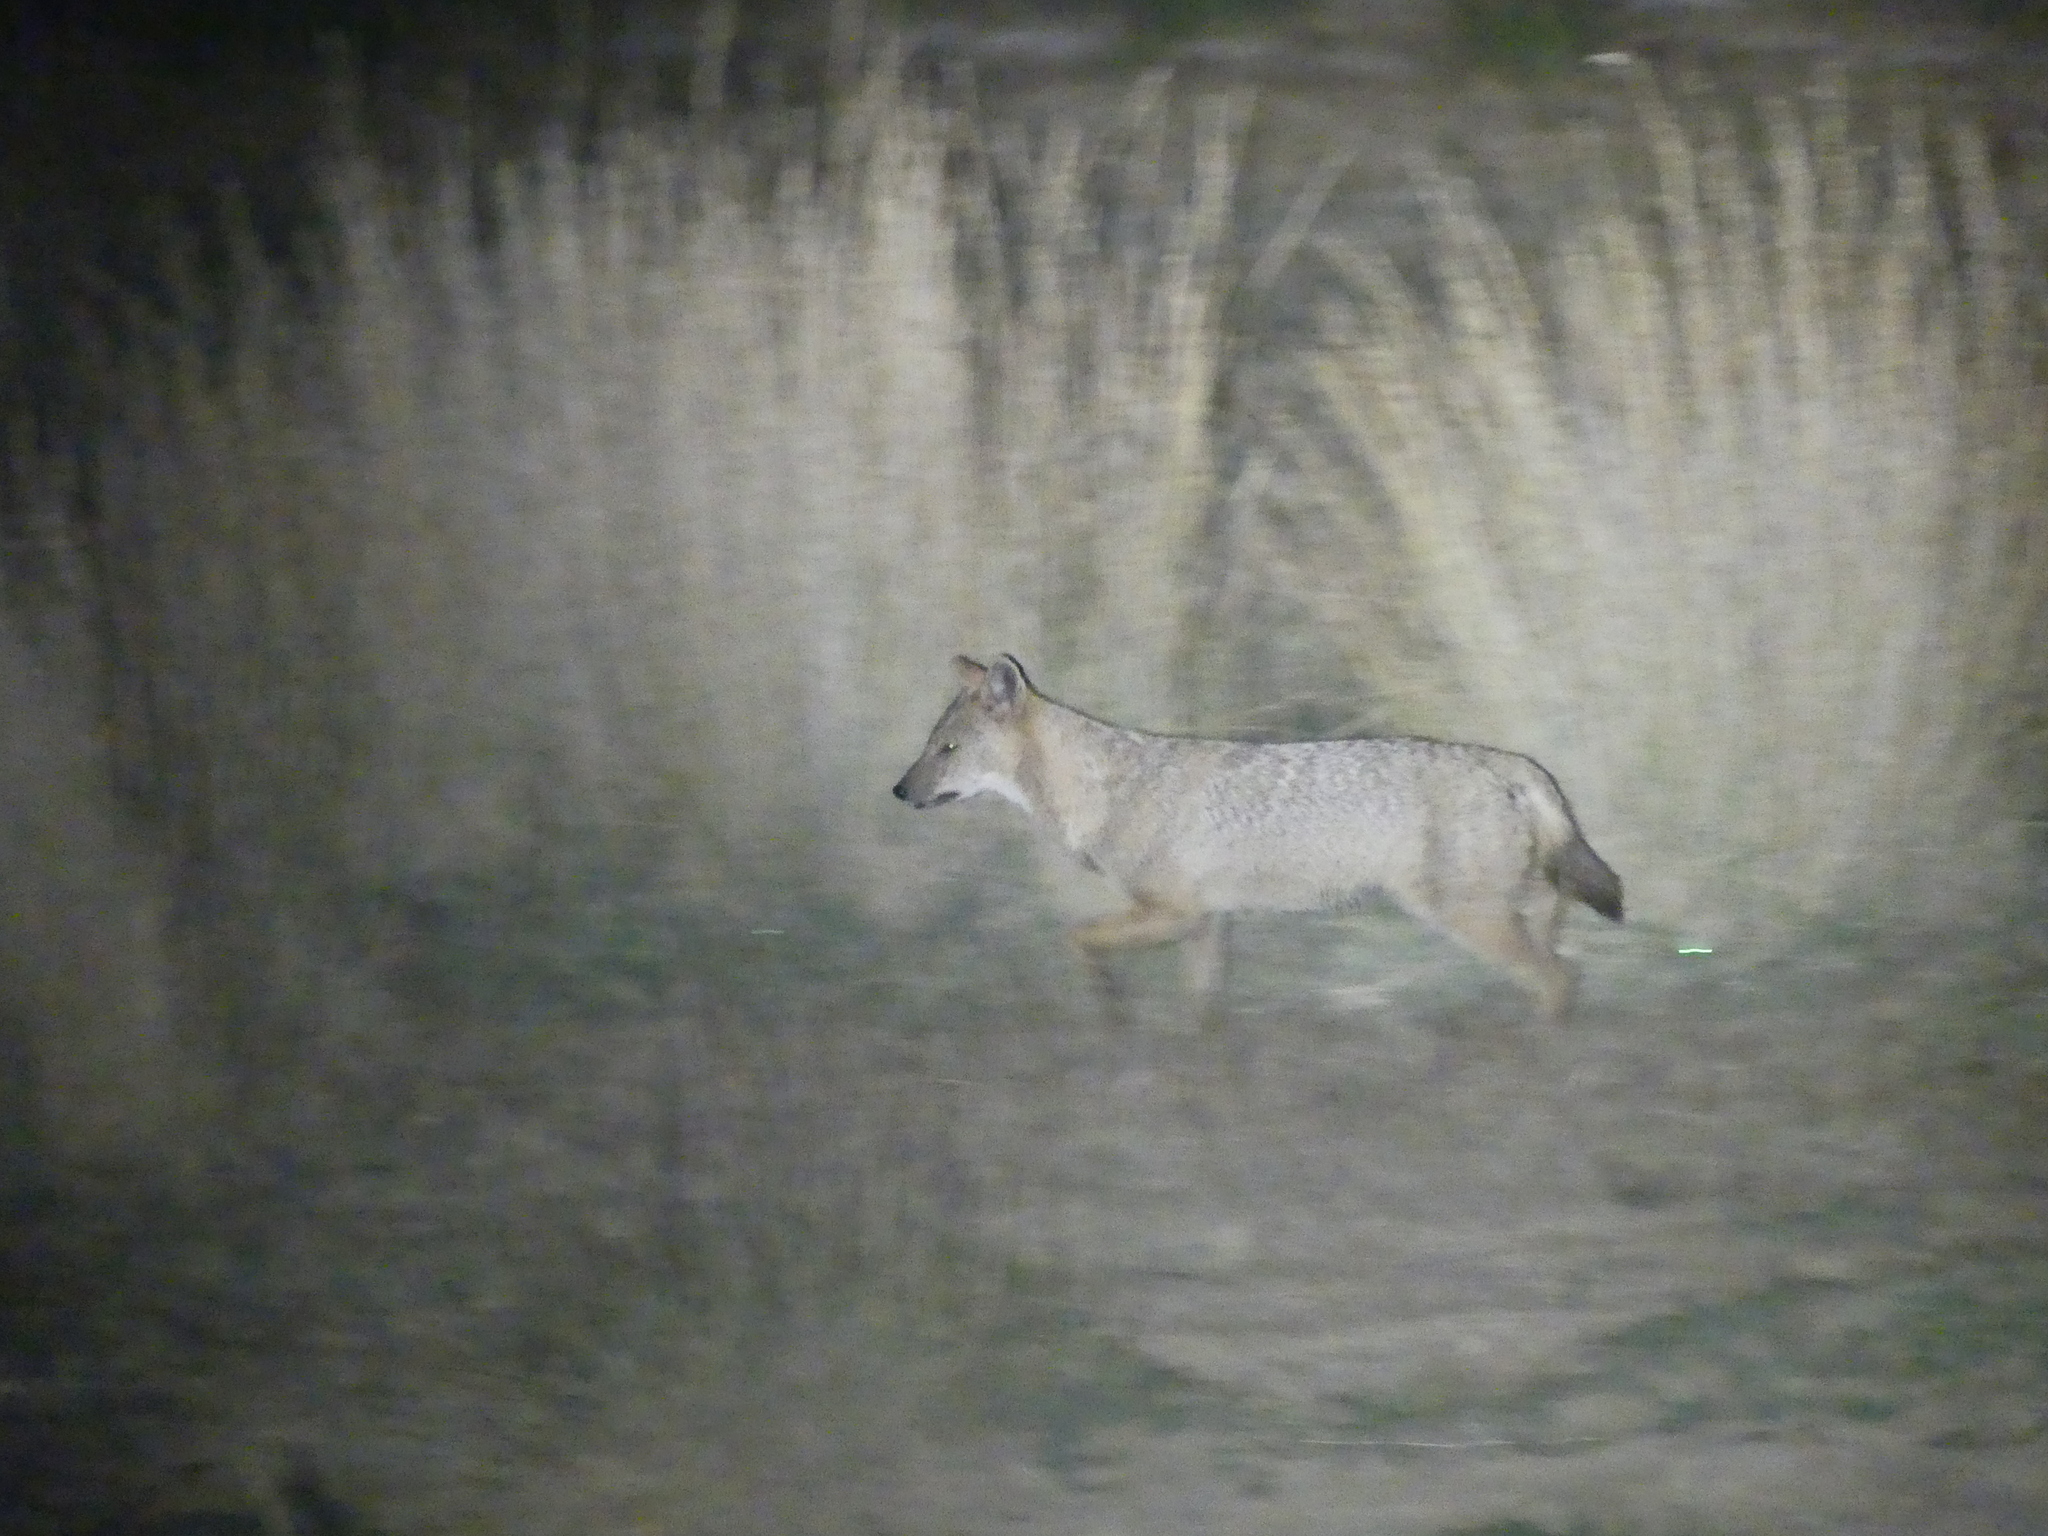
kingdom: Animalia
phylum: Chordata
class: Mammalia
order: Carnivora
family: Canidae
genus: Canis
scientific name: Canis aureus
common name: Golden jackal
